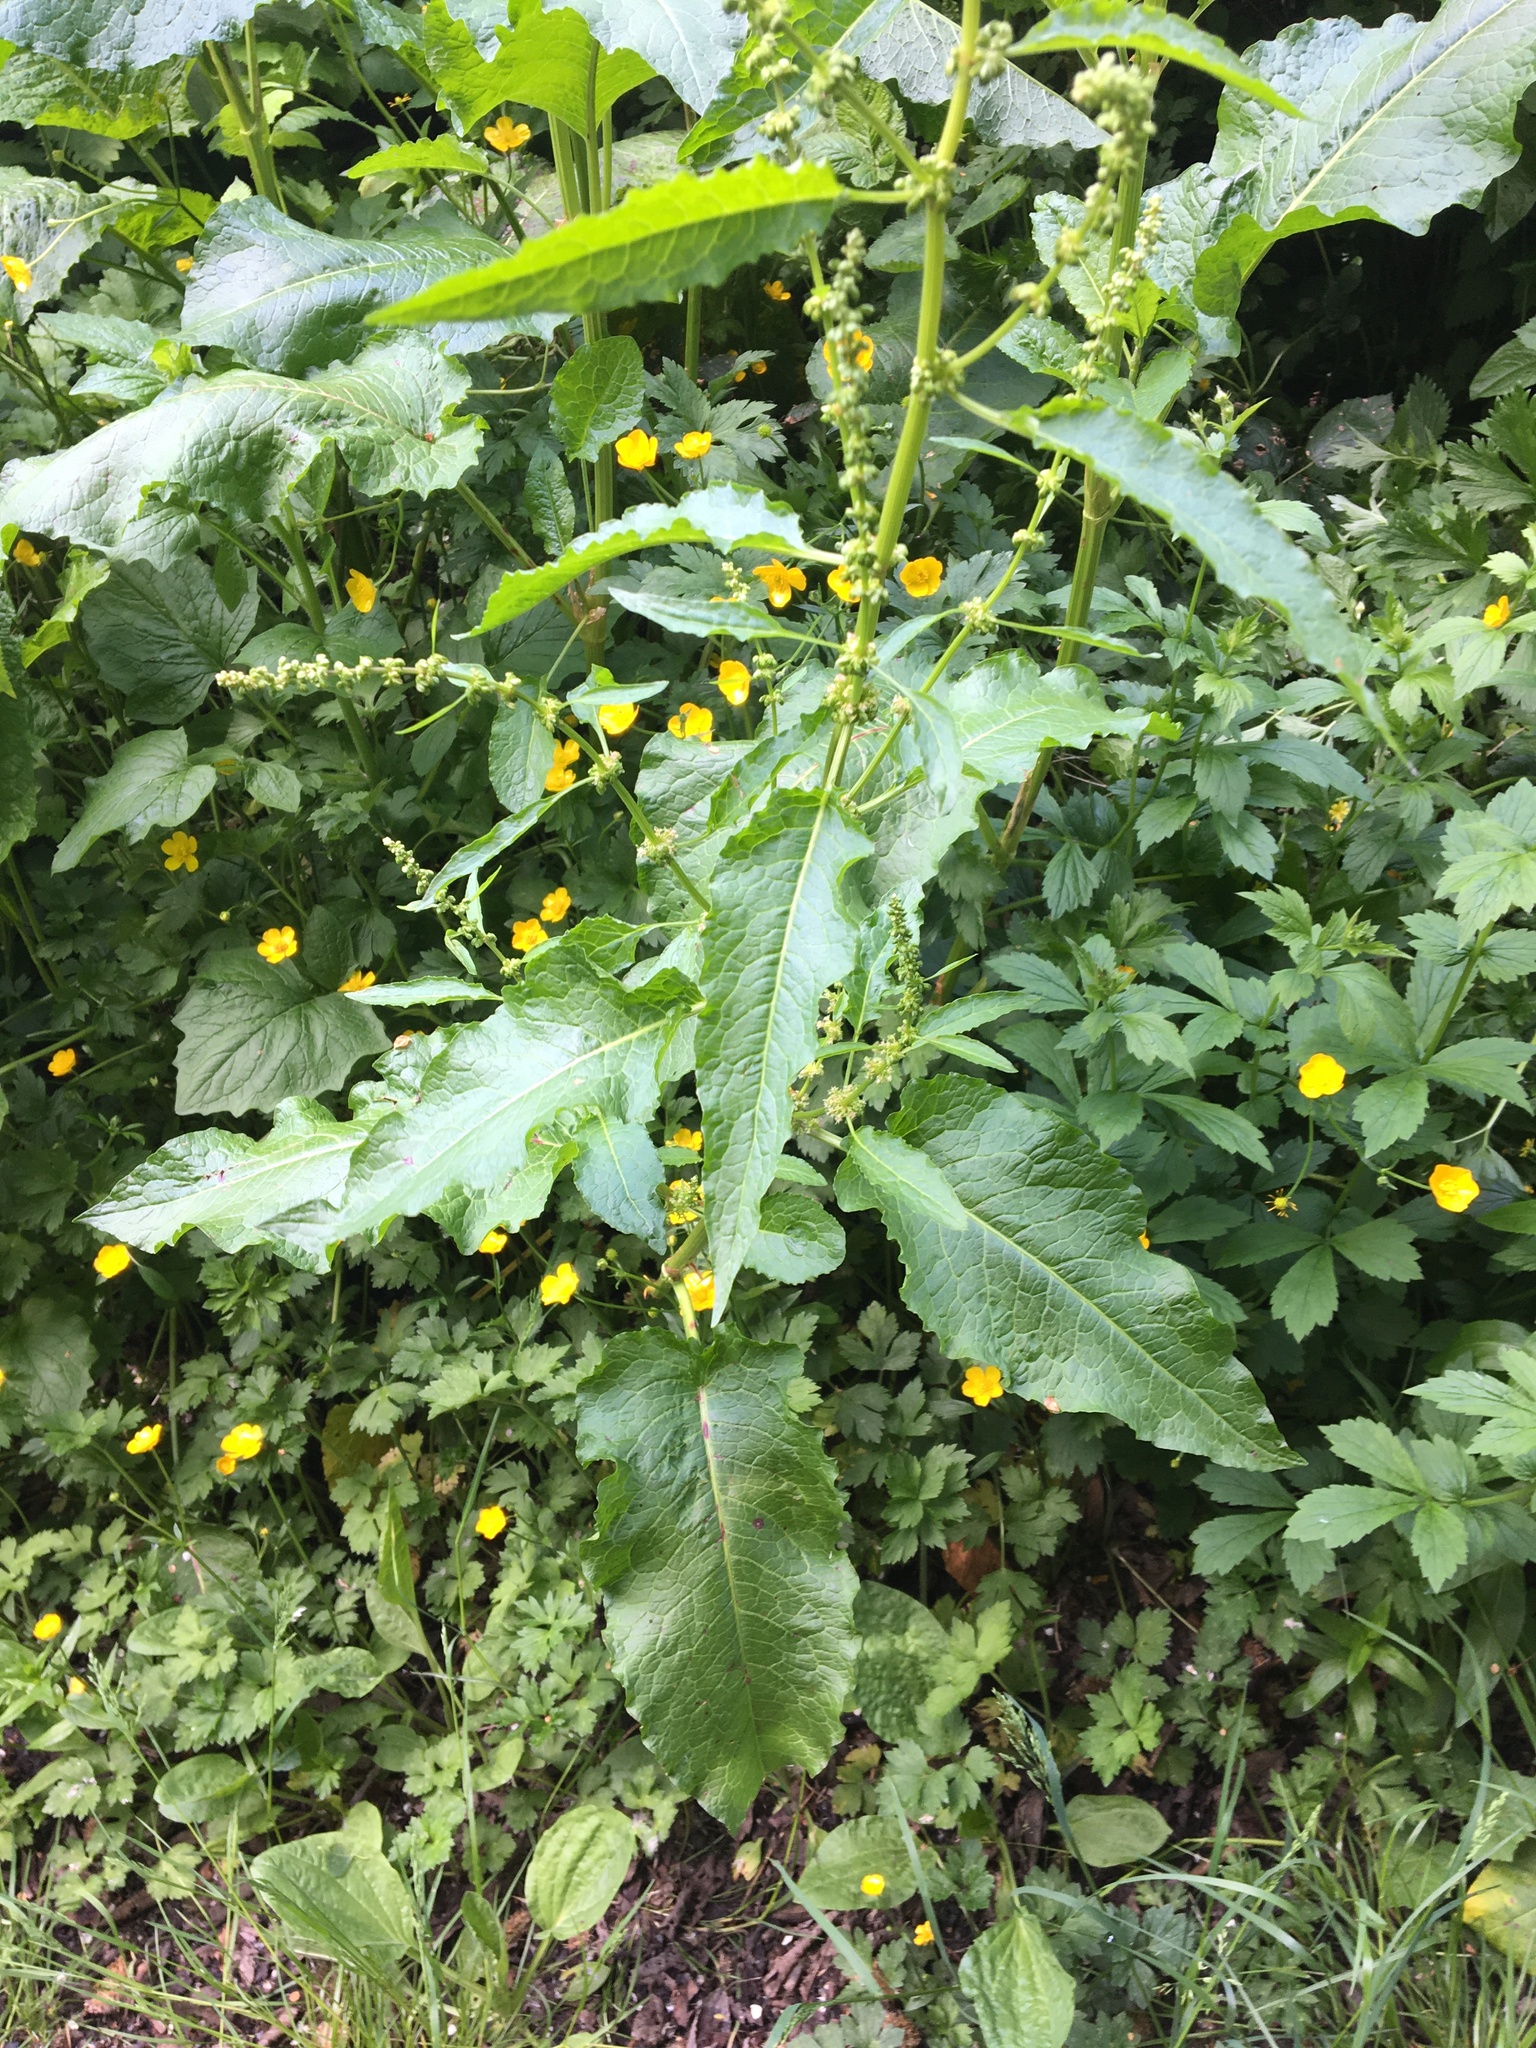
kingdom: Plantae
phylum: Tracheophyta
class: Magnoliopsida
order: Caryophyllales
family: Polygonaceae
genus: Rumex
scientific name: Rumex obtusifolius
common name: Bitter dock
